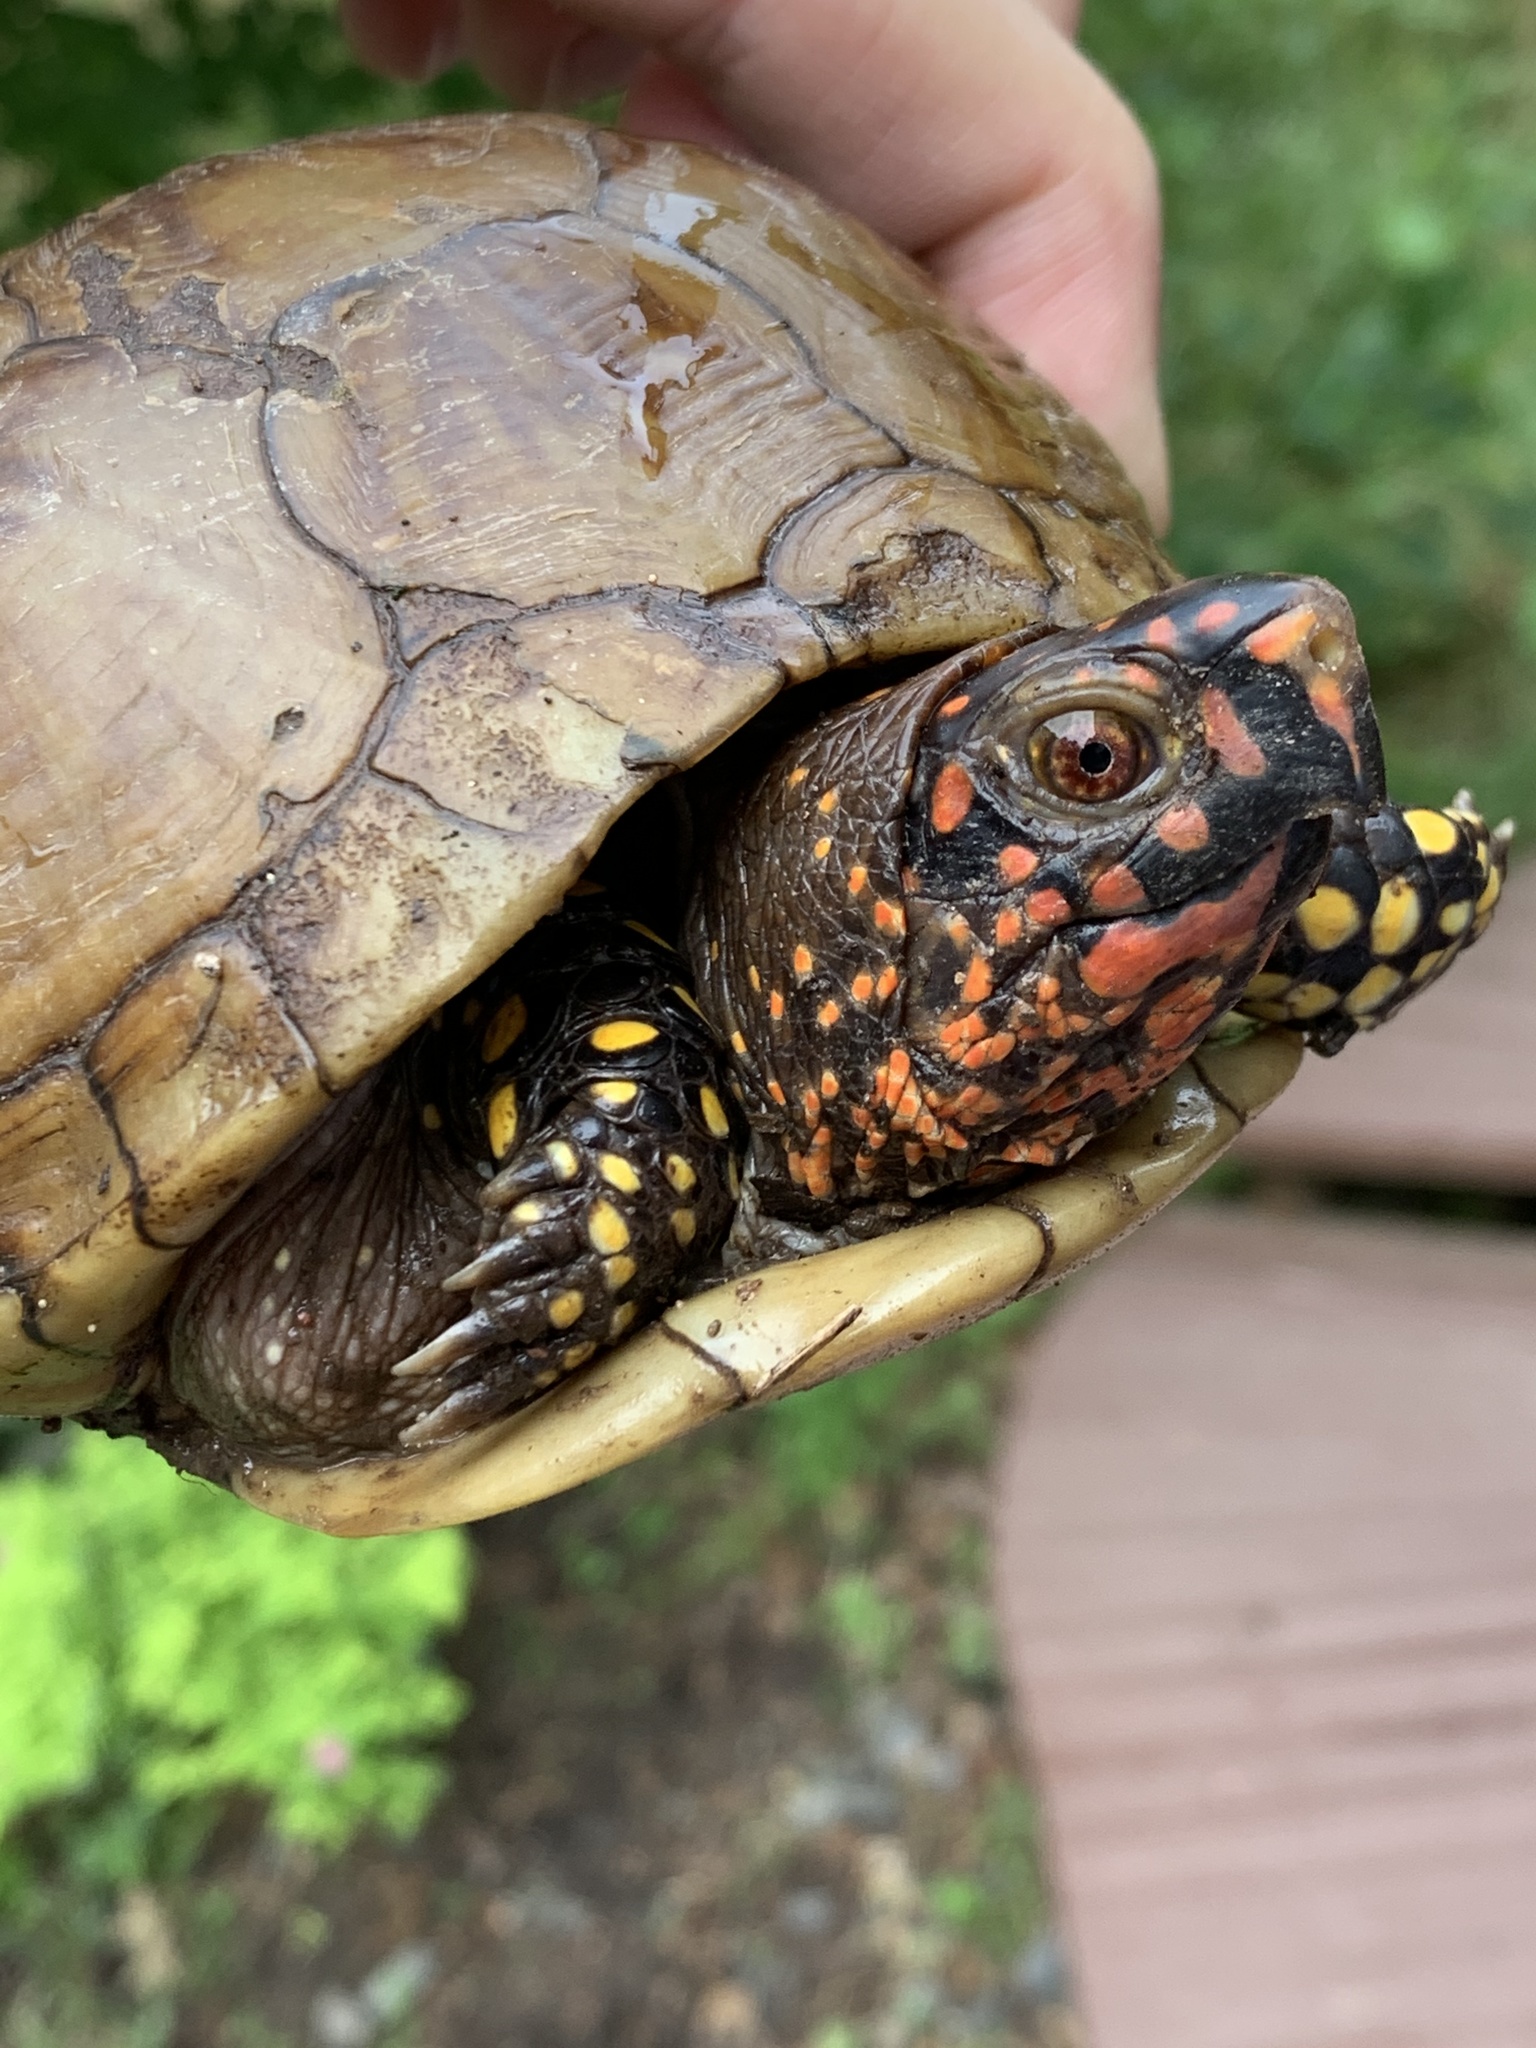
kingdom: Animalia
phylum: Chordata
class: Testudines
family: Emydidae
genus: Terrapene
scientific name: Terrapene carolina
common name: Common box turtle
